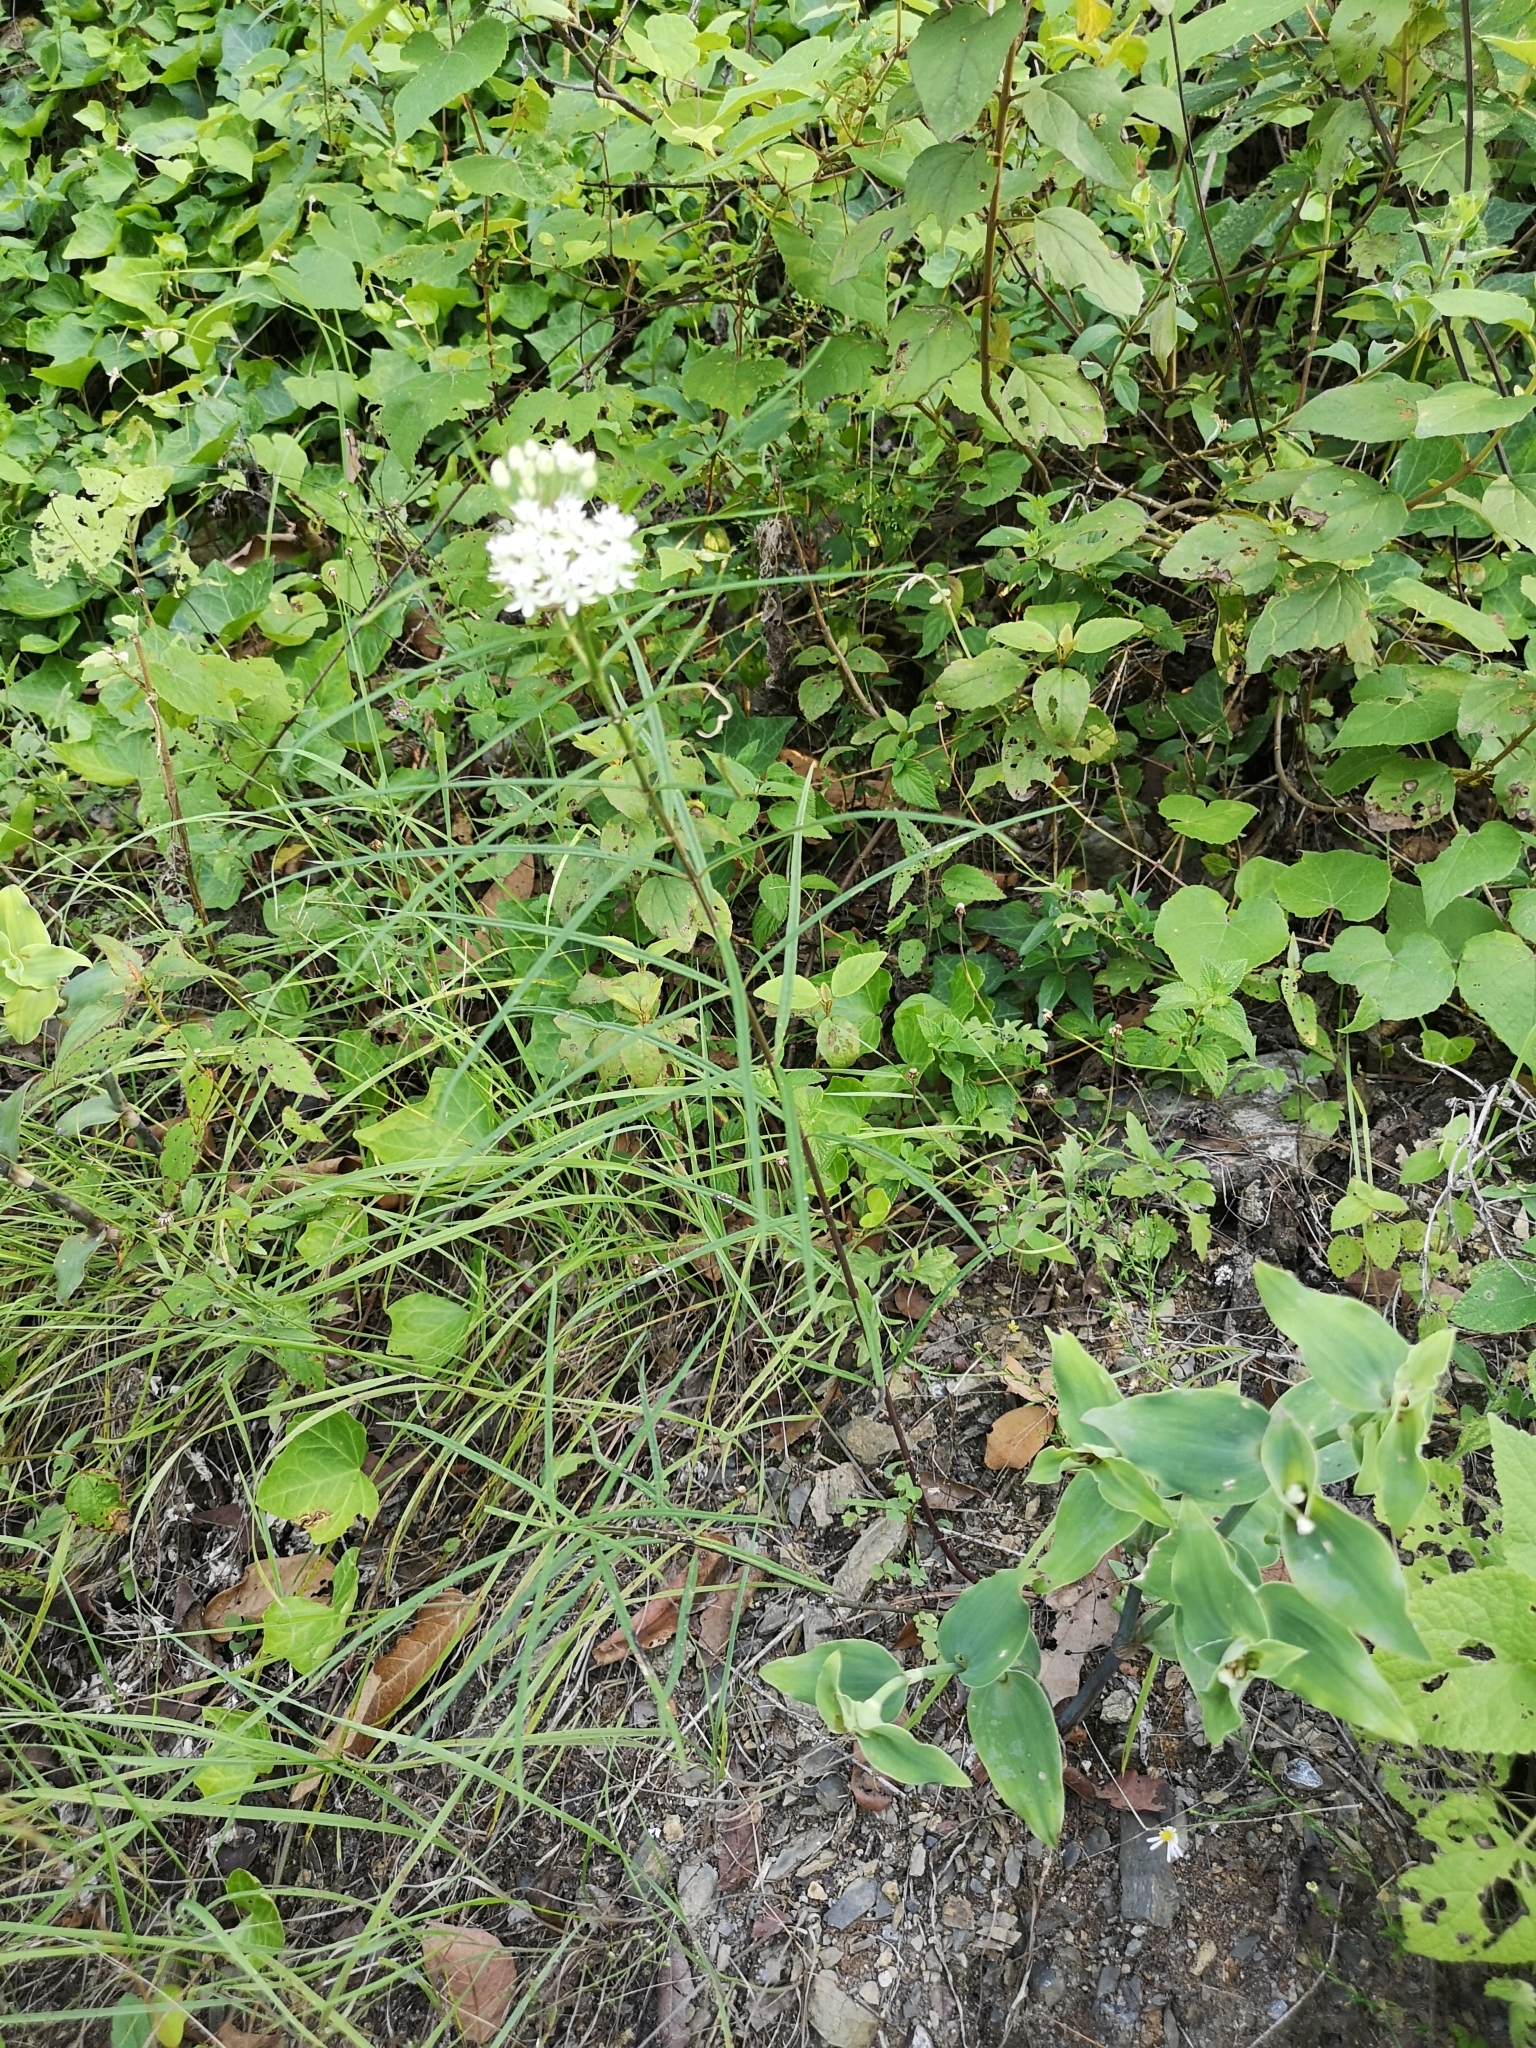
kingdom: Plantae
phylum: Tracheophyta
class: Magnoliopsida
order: Gentianales
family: Apocynaceae
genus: Asclepias
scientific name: Asclepias angustifolia
